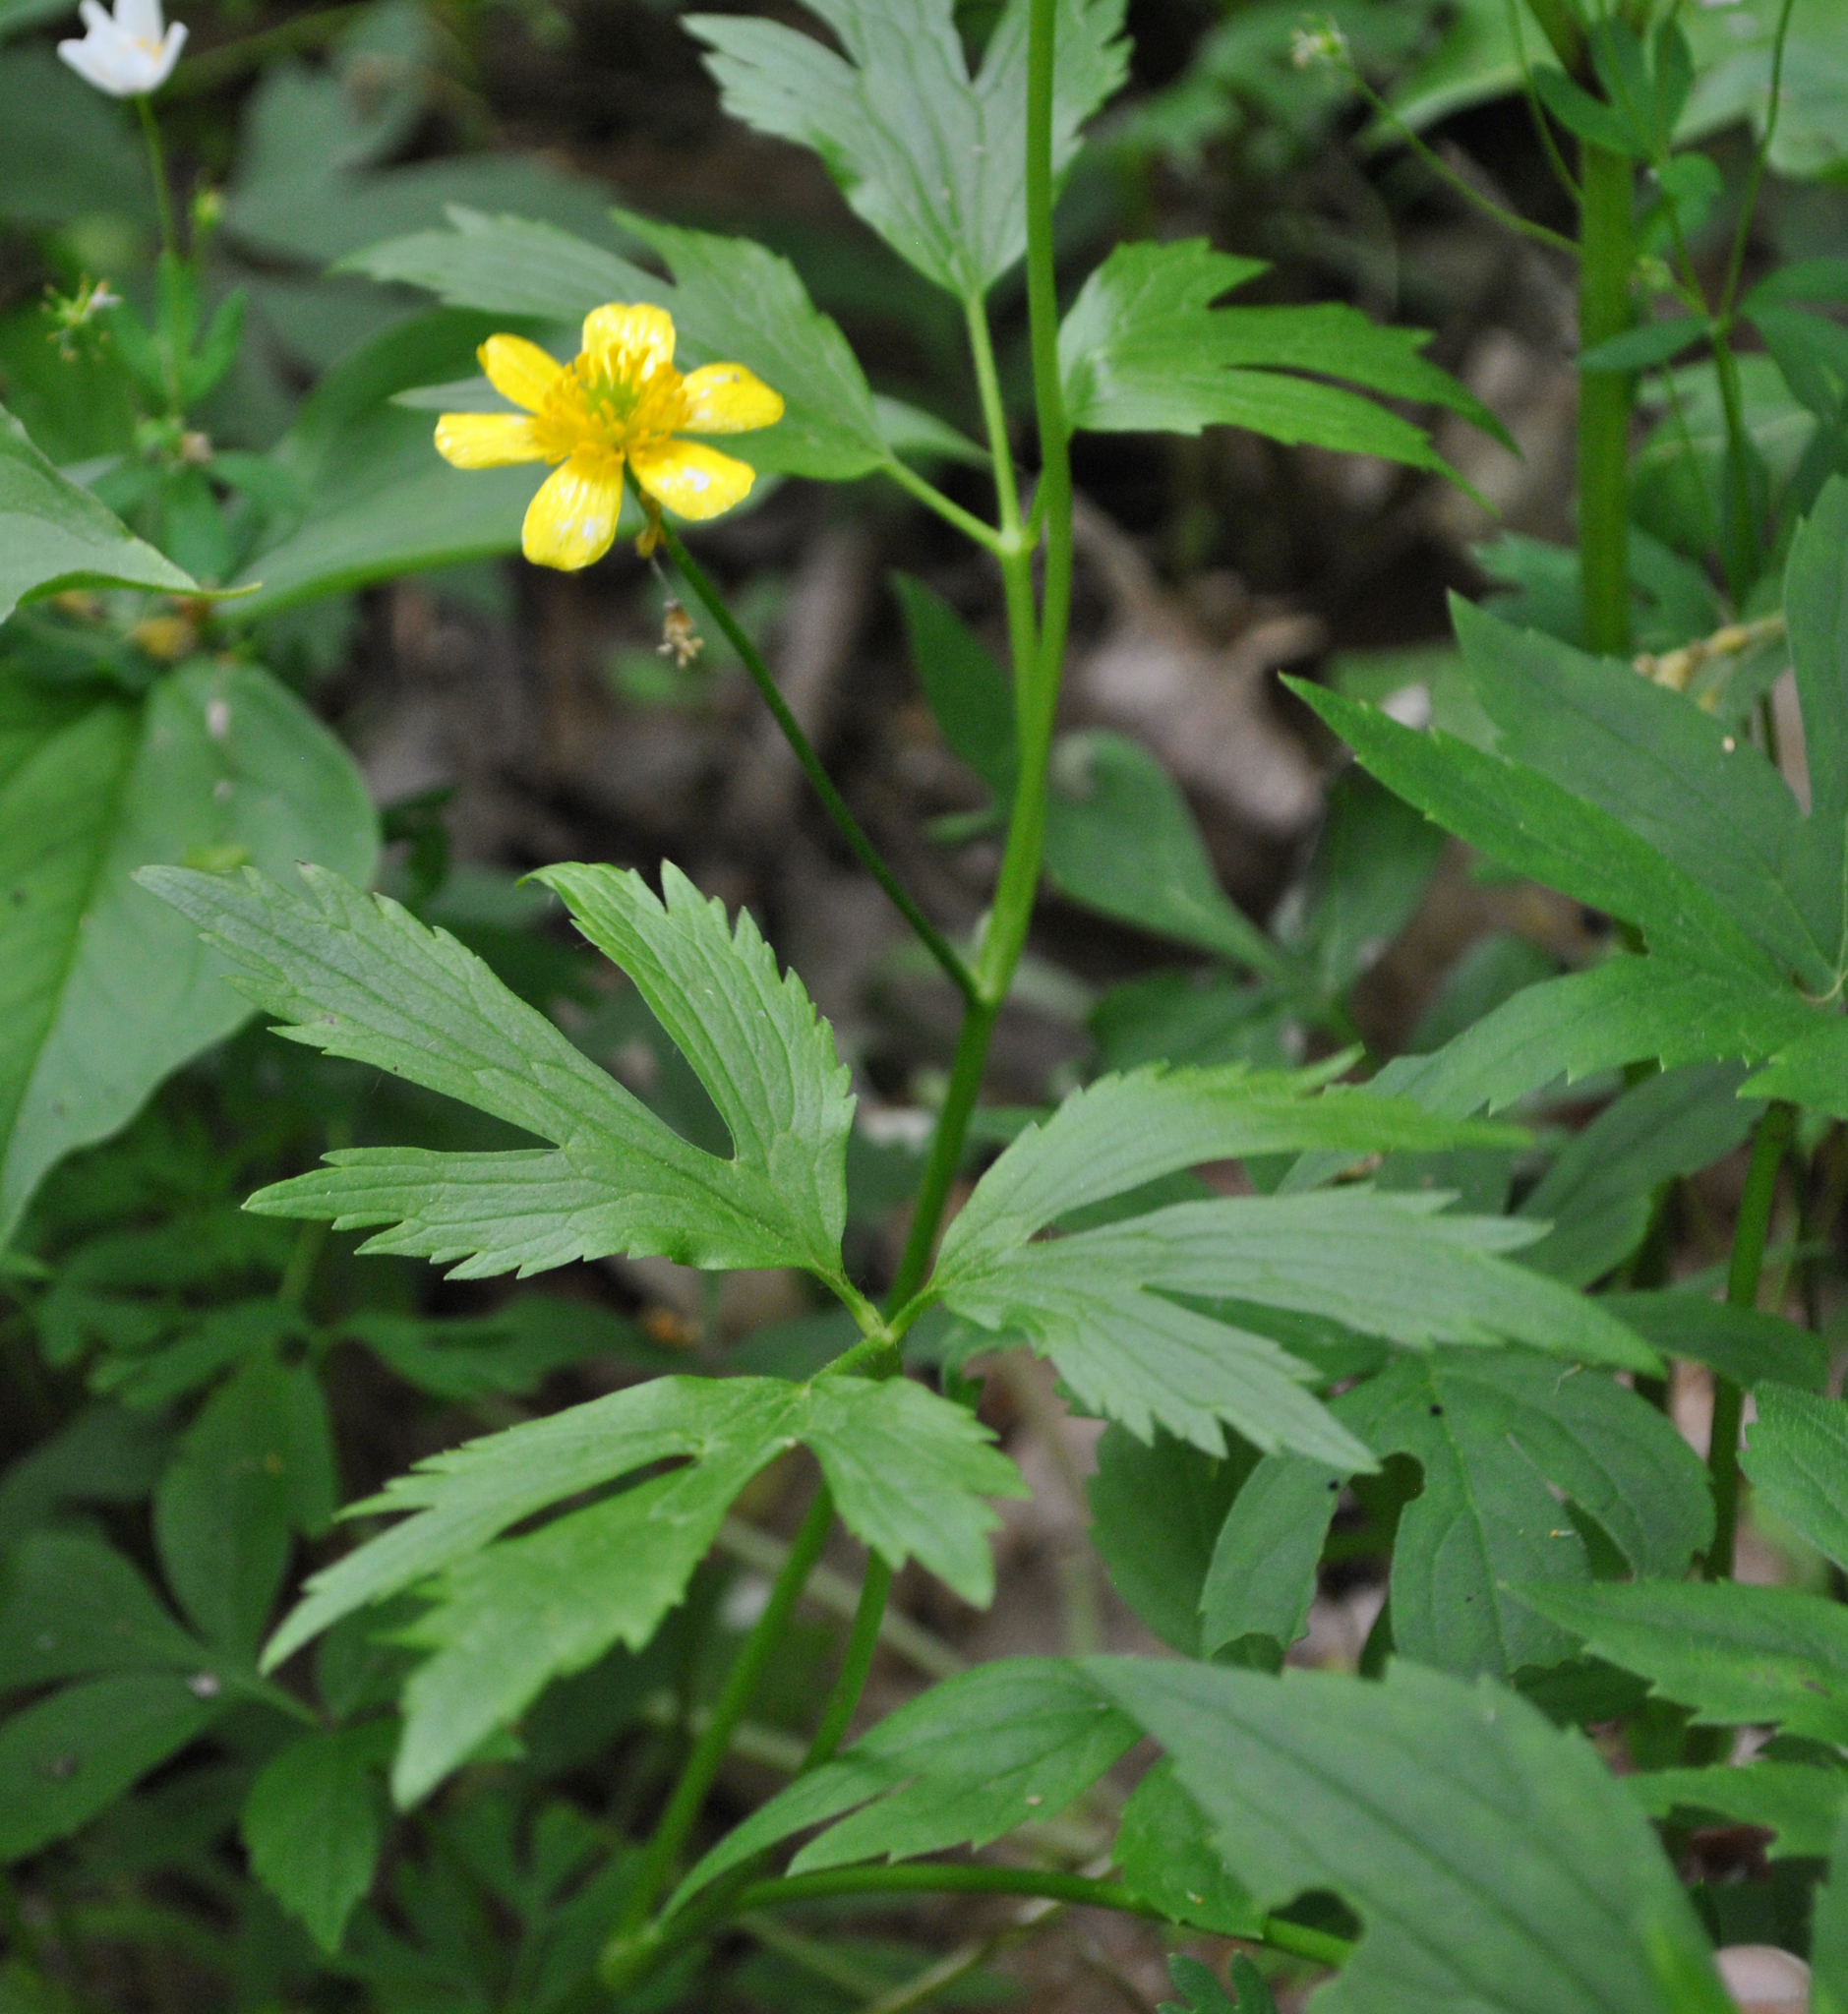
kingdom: Plantae
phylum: Tracheophyta
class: Magnoliopsida
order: Ranunculales
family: Ranunculaceae
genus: Ranunculus
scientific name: Ranunculus hispidus
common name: Bristly buttercup
